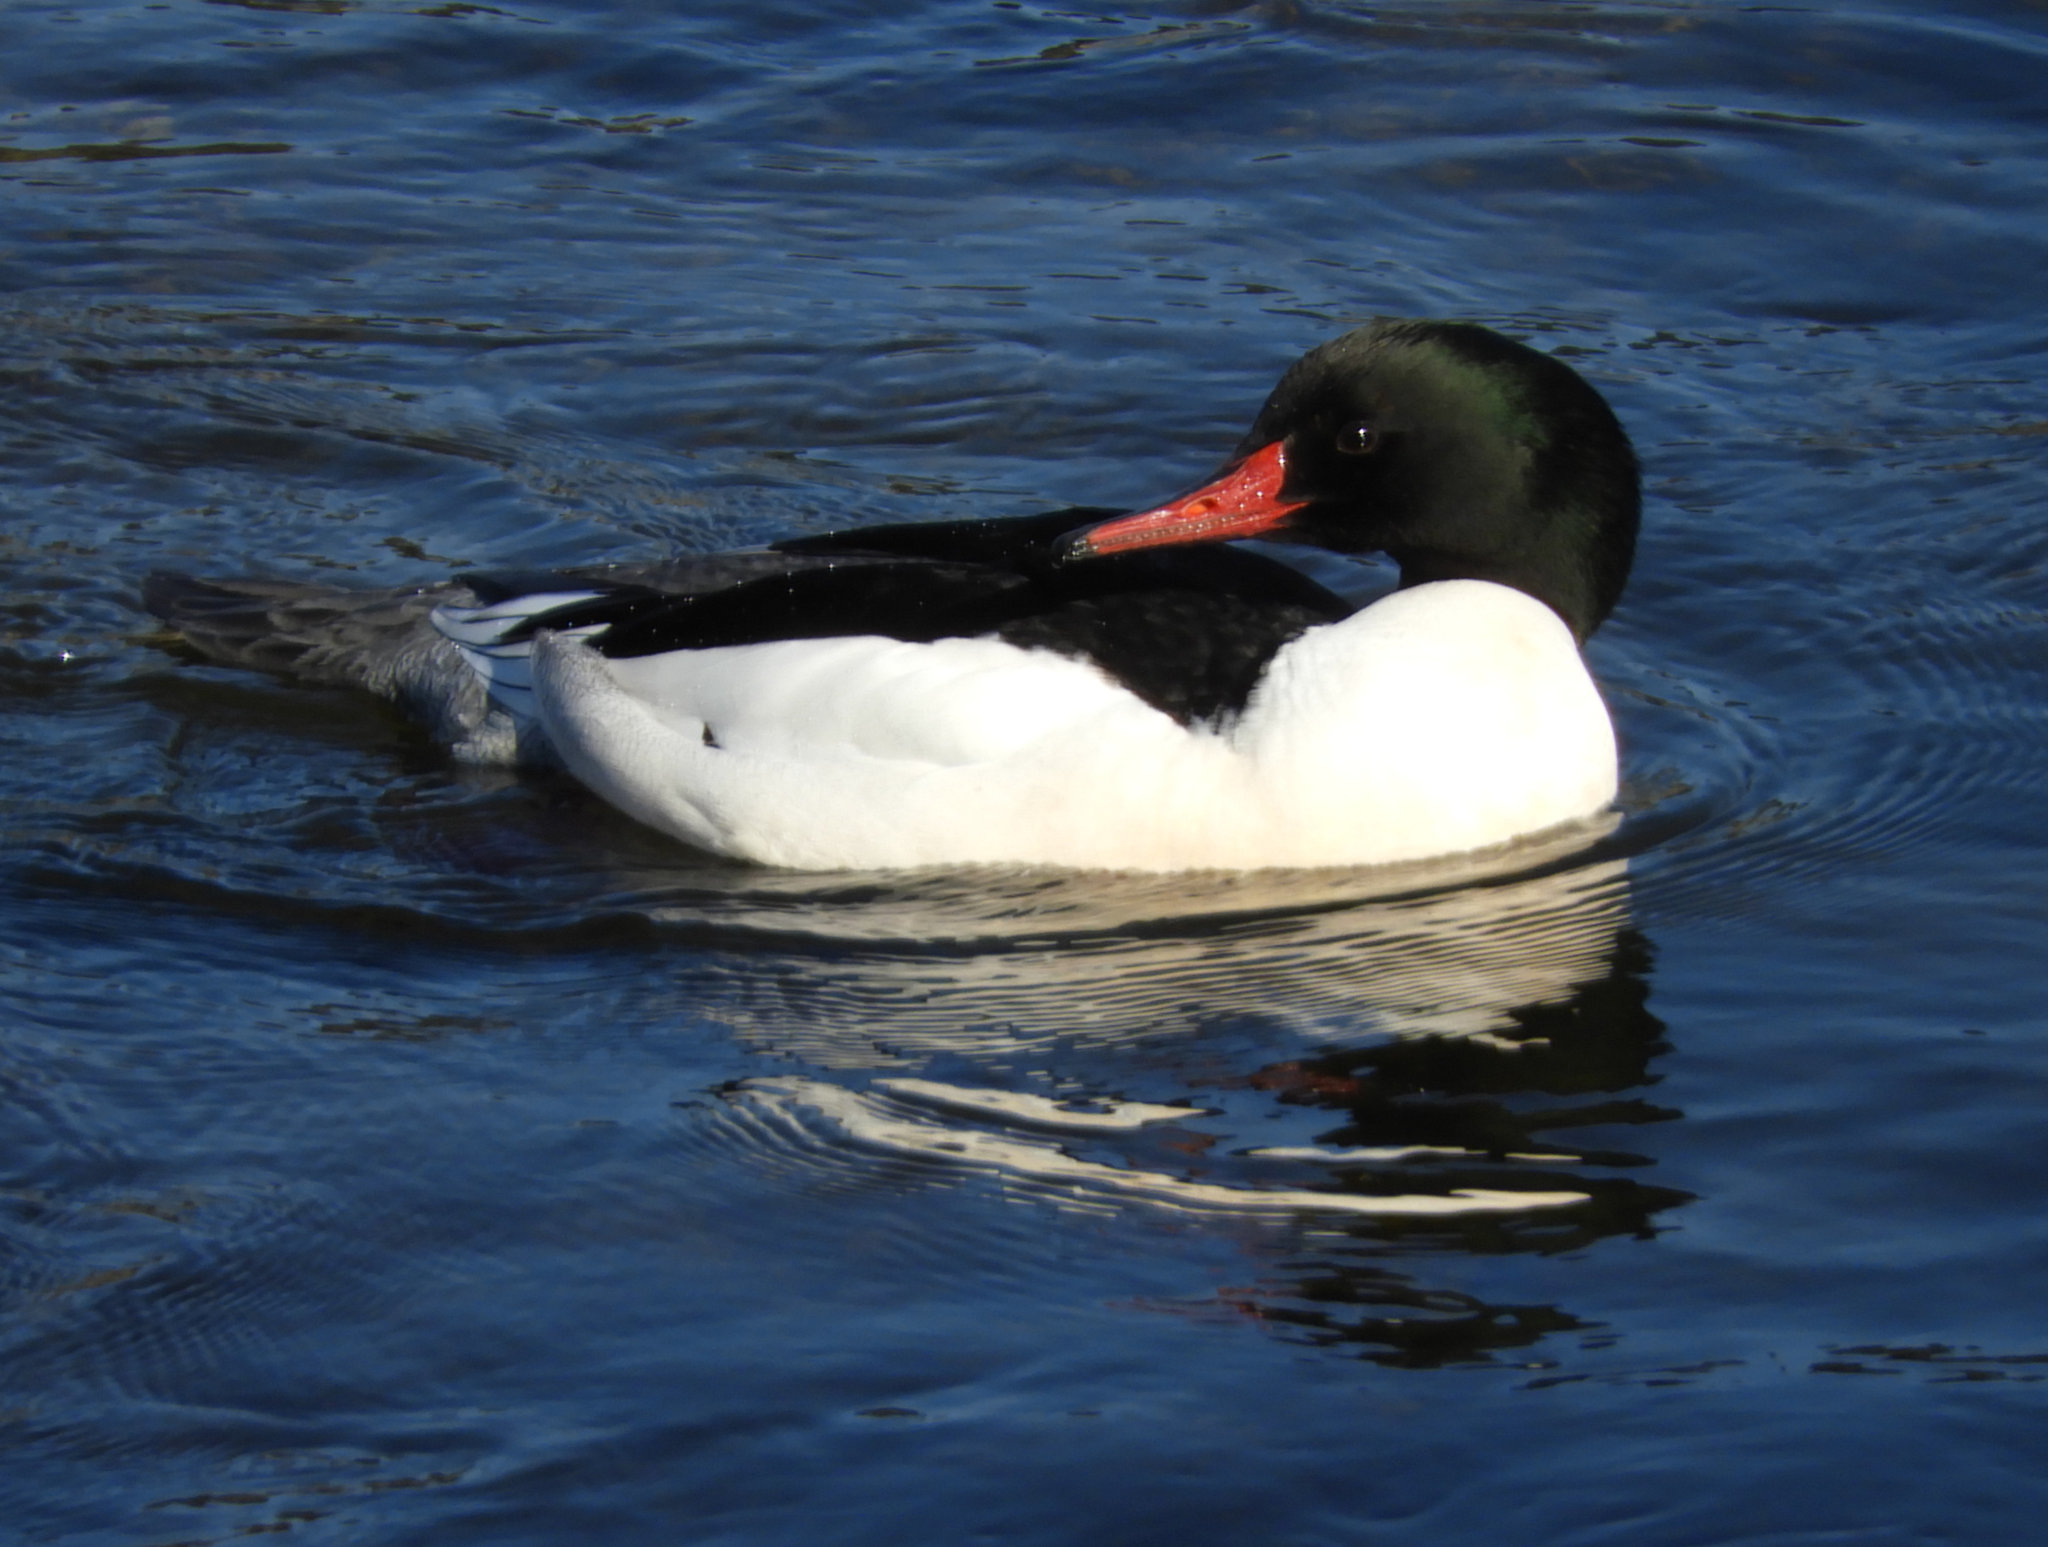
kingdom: Animalia
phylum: Chordata
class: Aves
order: Anseriformes
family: Anatidae
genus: Mergus
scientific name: Mergus merganser
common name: Common merganser
